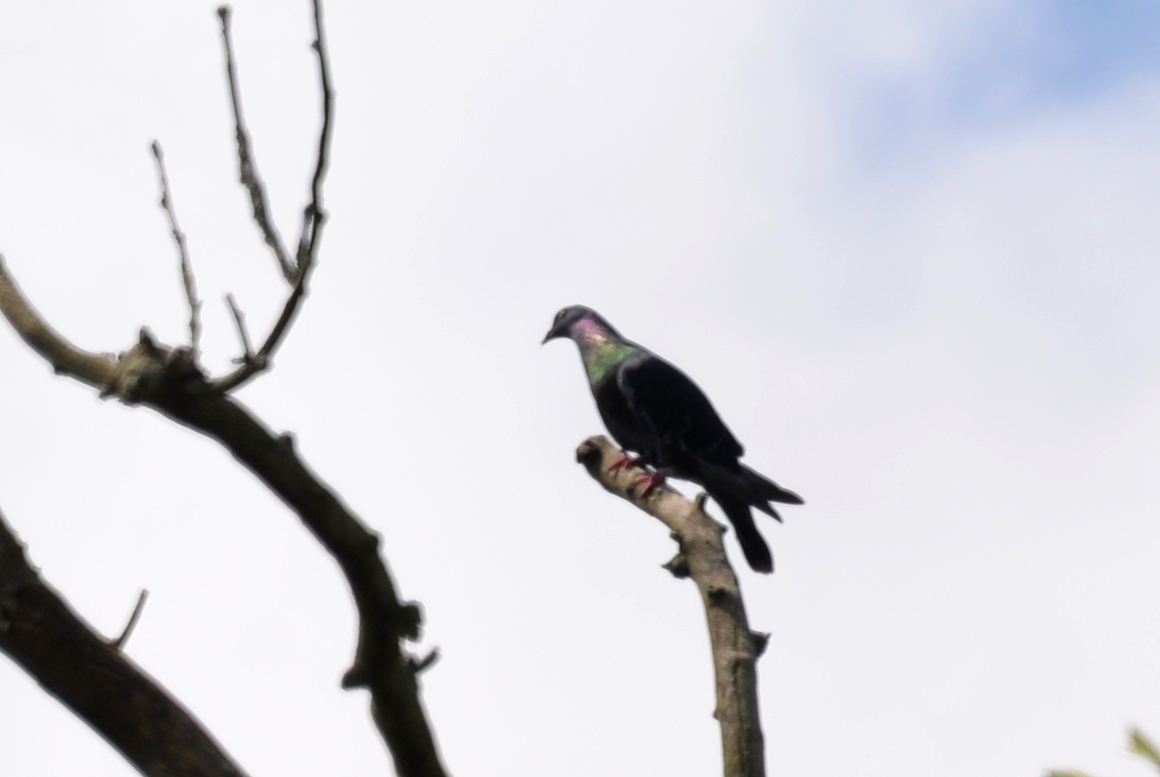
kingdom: Animalia
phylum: Chordata
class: Aves
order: Columbiformes
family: Columbidae
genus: Columba
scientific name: Columba livia
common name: Rock pigeon
